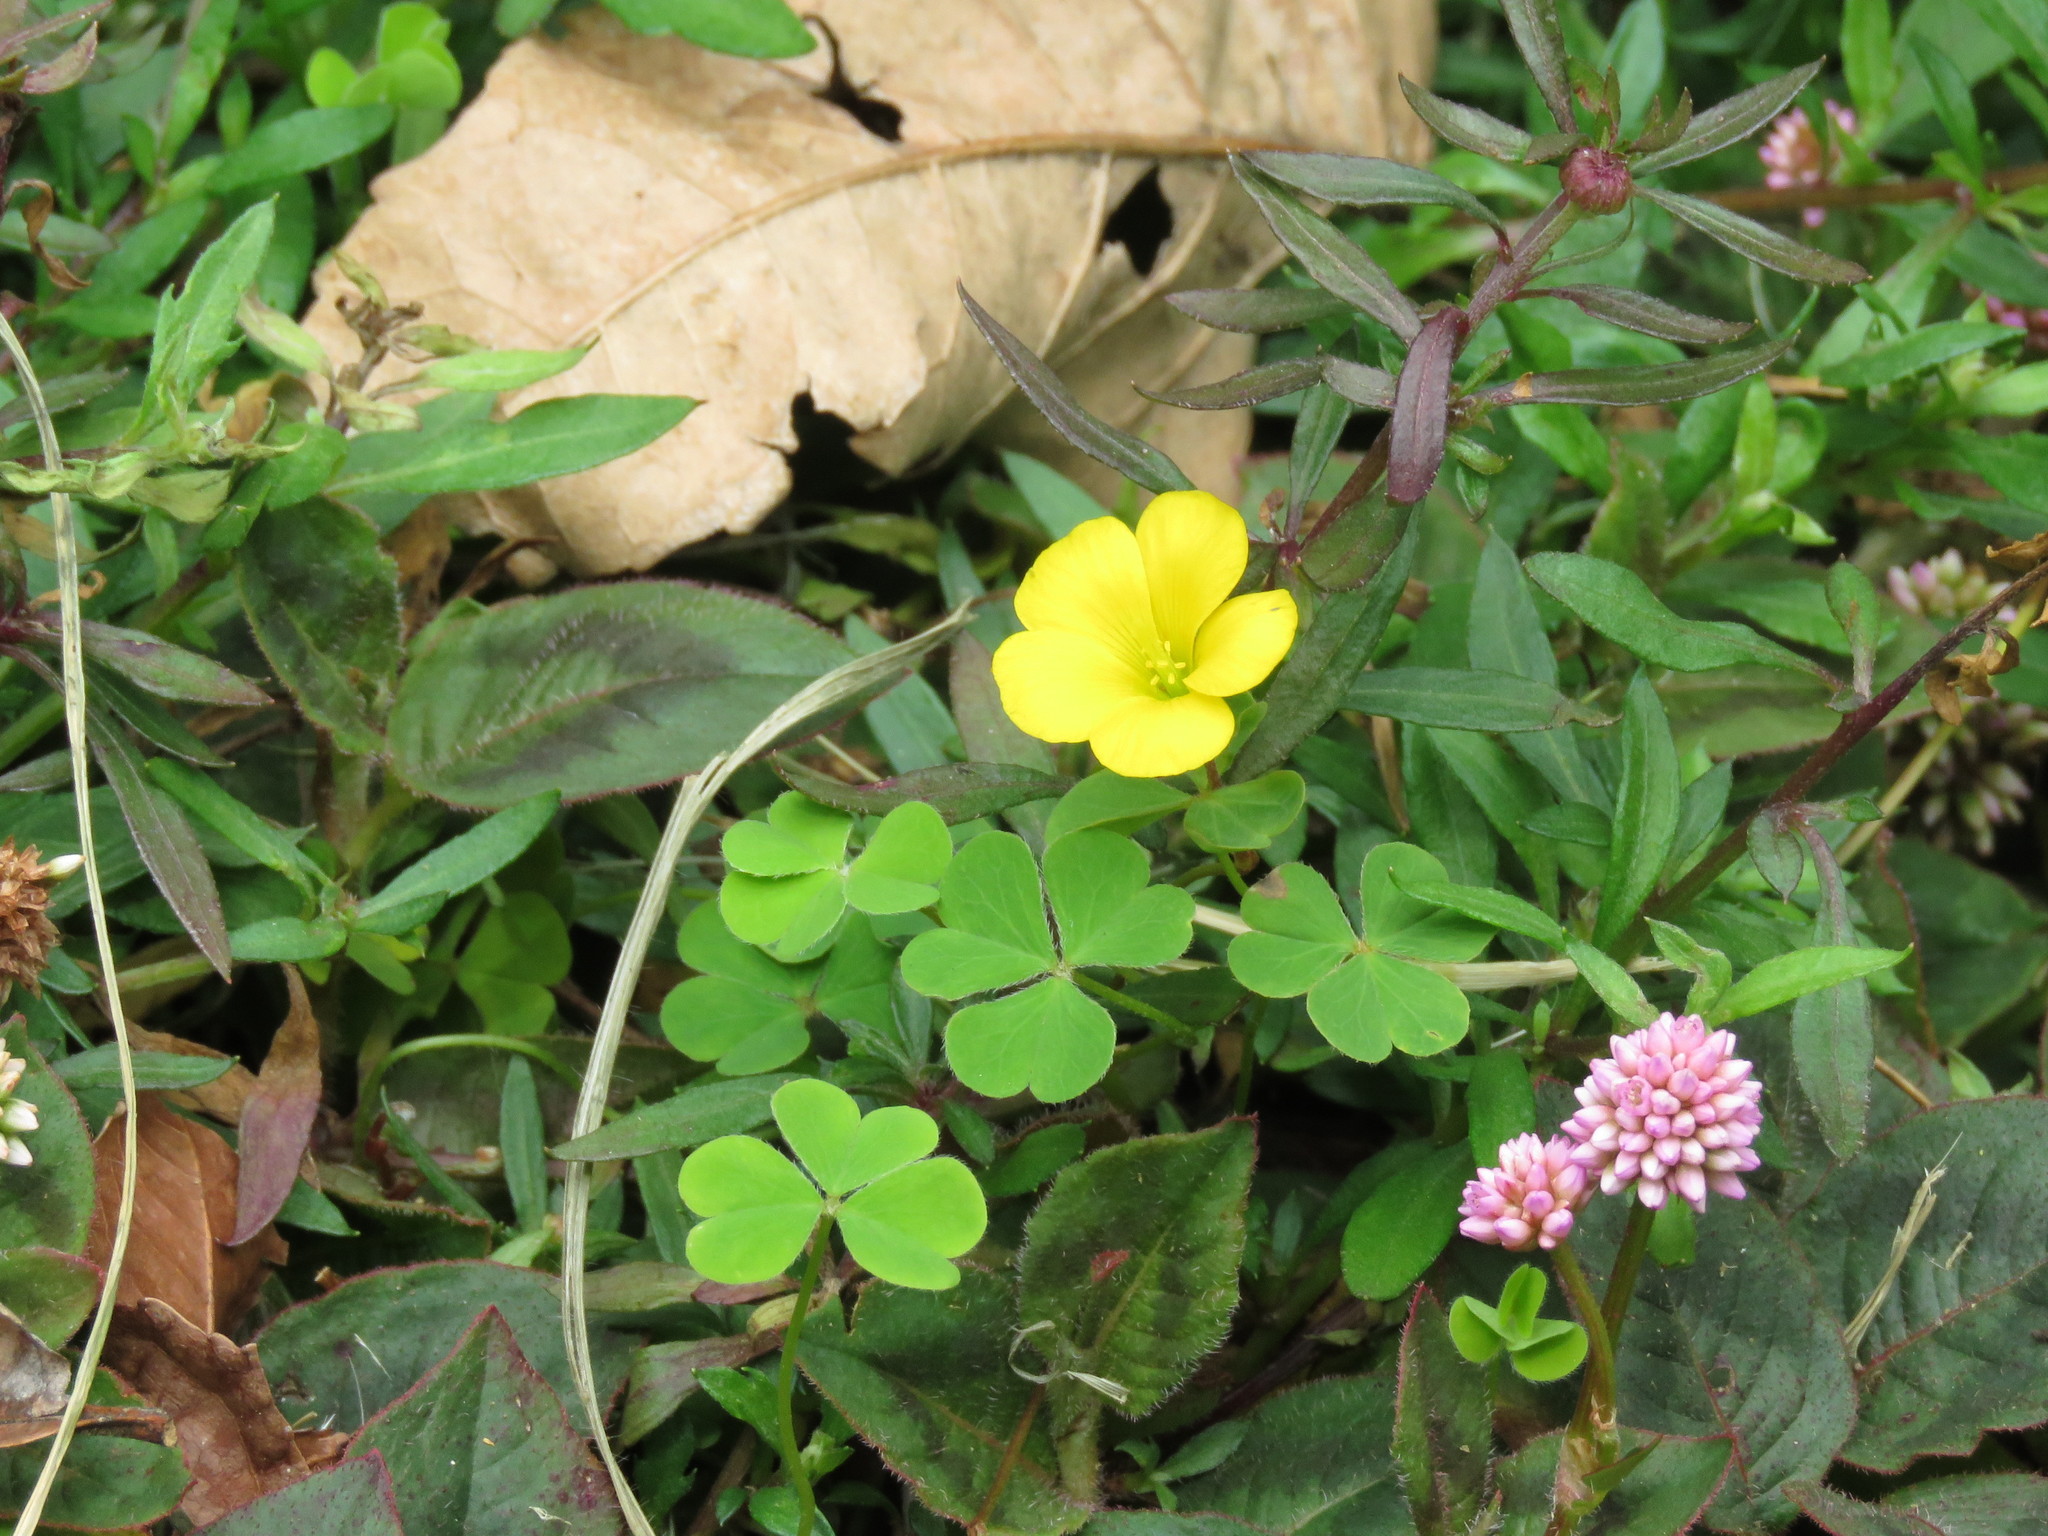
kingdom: Plantae
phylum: Tracheophyta
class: Magnoliopsida
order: Oxalidales
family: Oxalidaceae
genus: Oxalis
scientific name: Oxalis corniculata
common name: Procumbent yellow-sorrel
